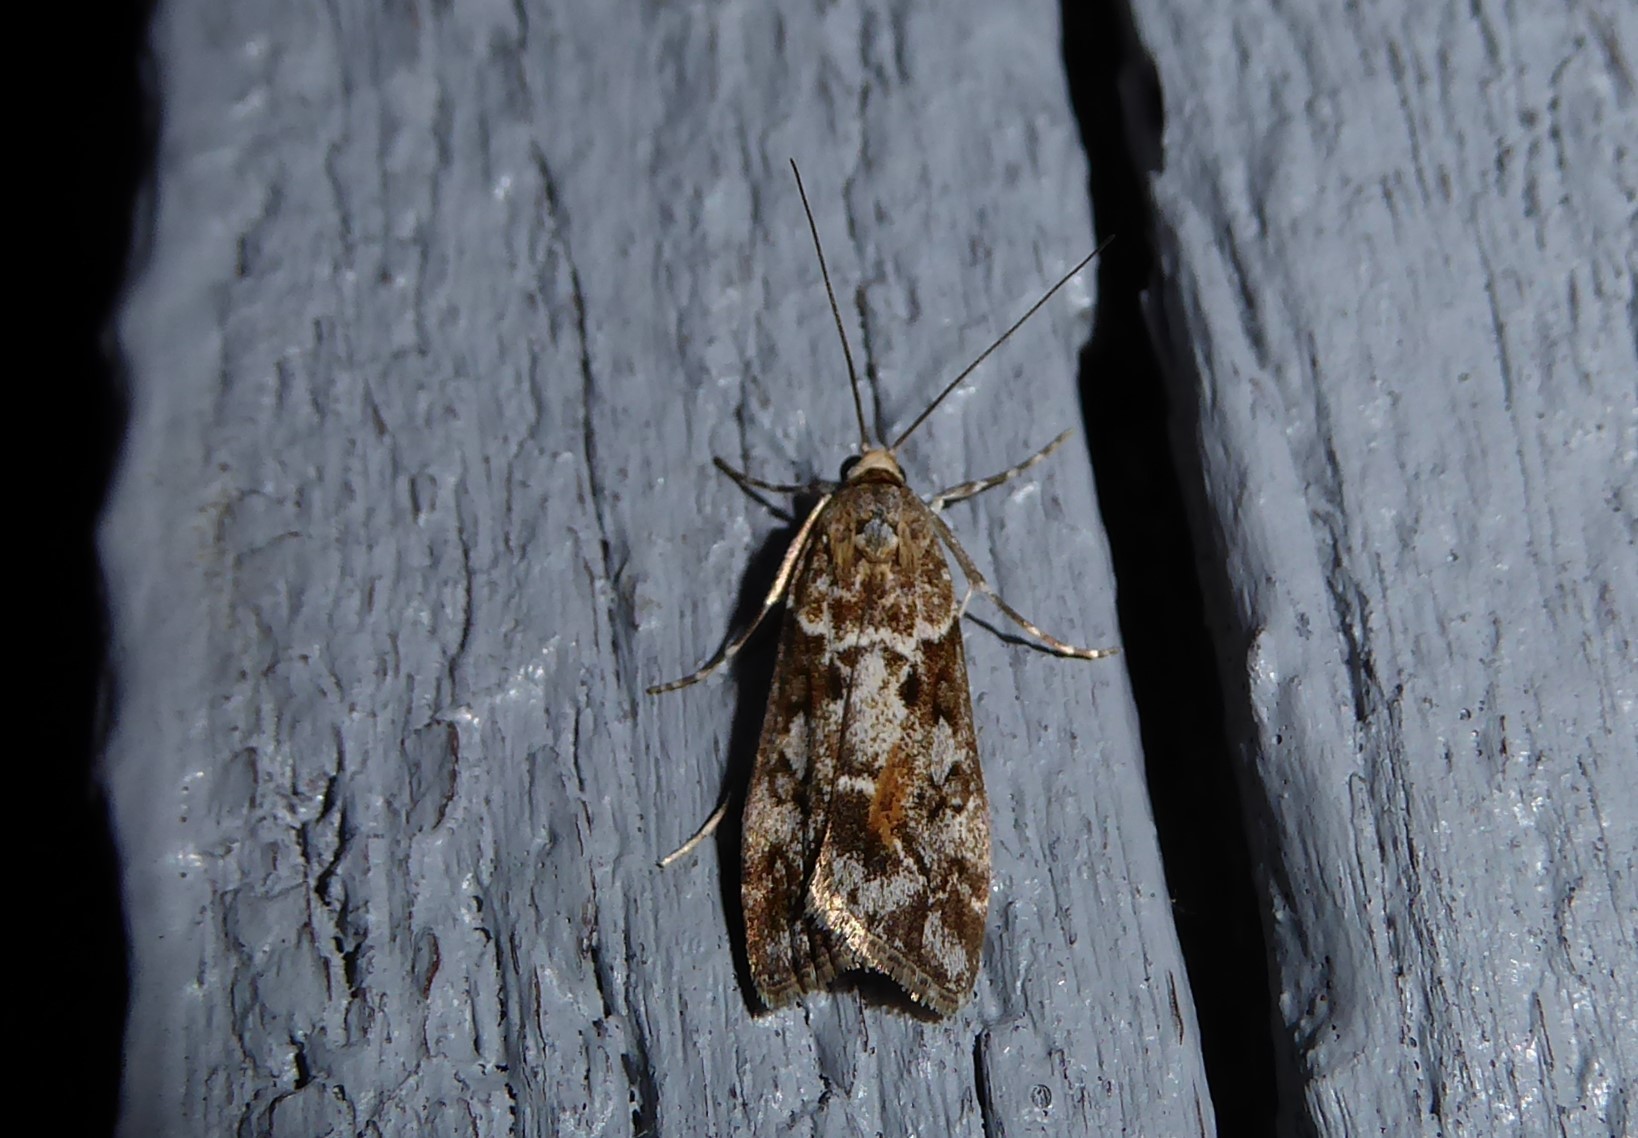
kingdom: Animalia
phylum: Arthropoda
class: Insecta
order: Lepidoptera
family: Crambidae
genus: Eudonia
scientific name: Eudonia submarginalis
